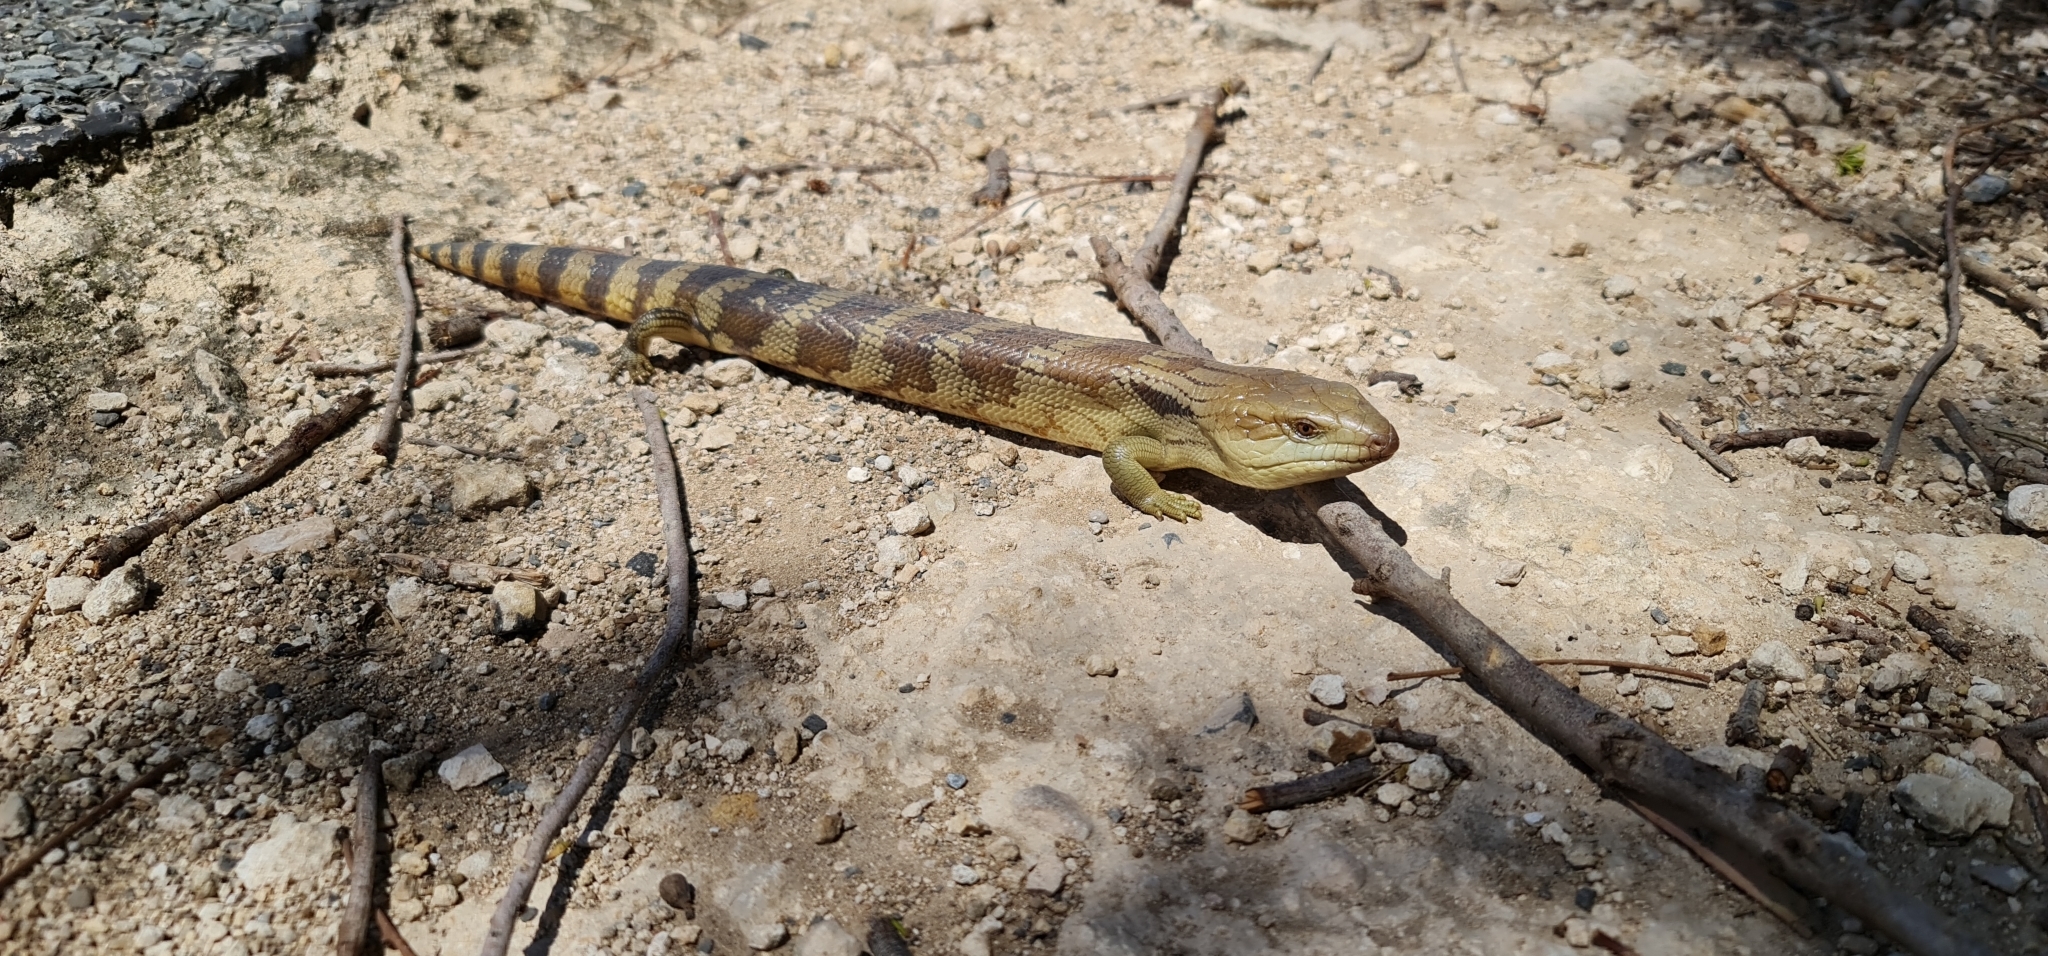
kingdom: Animalia
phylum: Chordata
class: Squamata
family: Scincidae
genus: Tiliqua
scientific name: Tiliqua scincoides
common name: Common bluetongue
